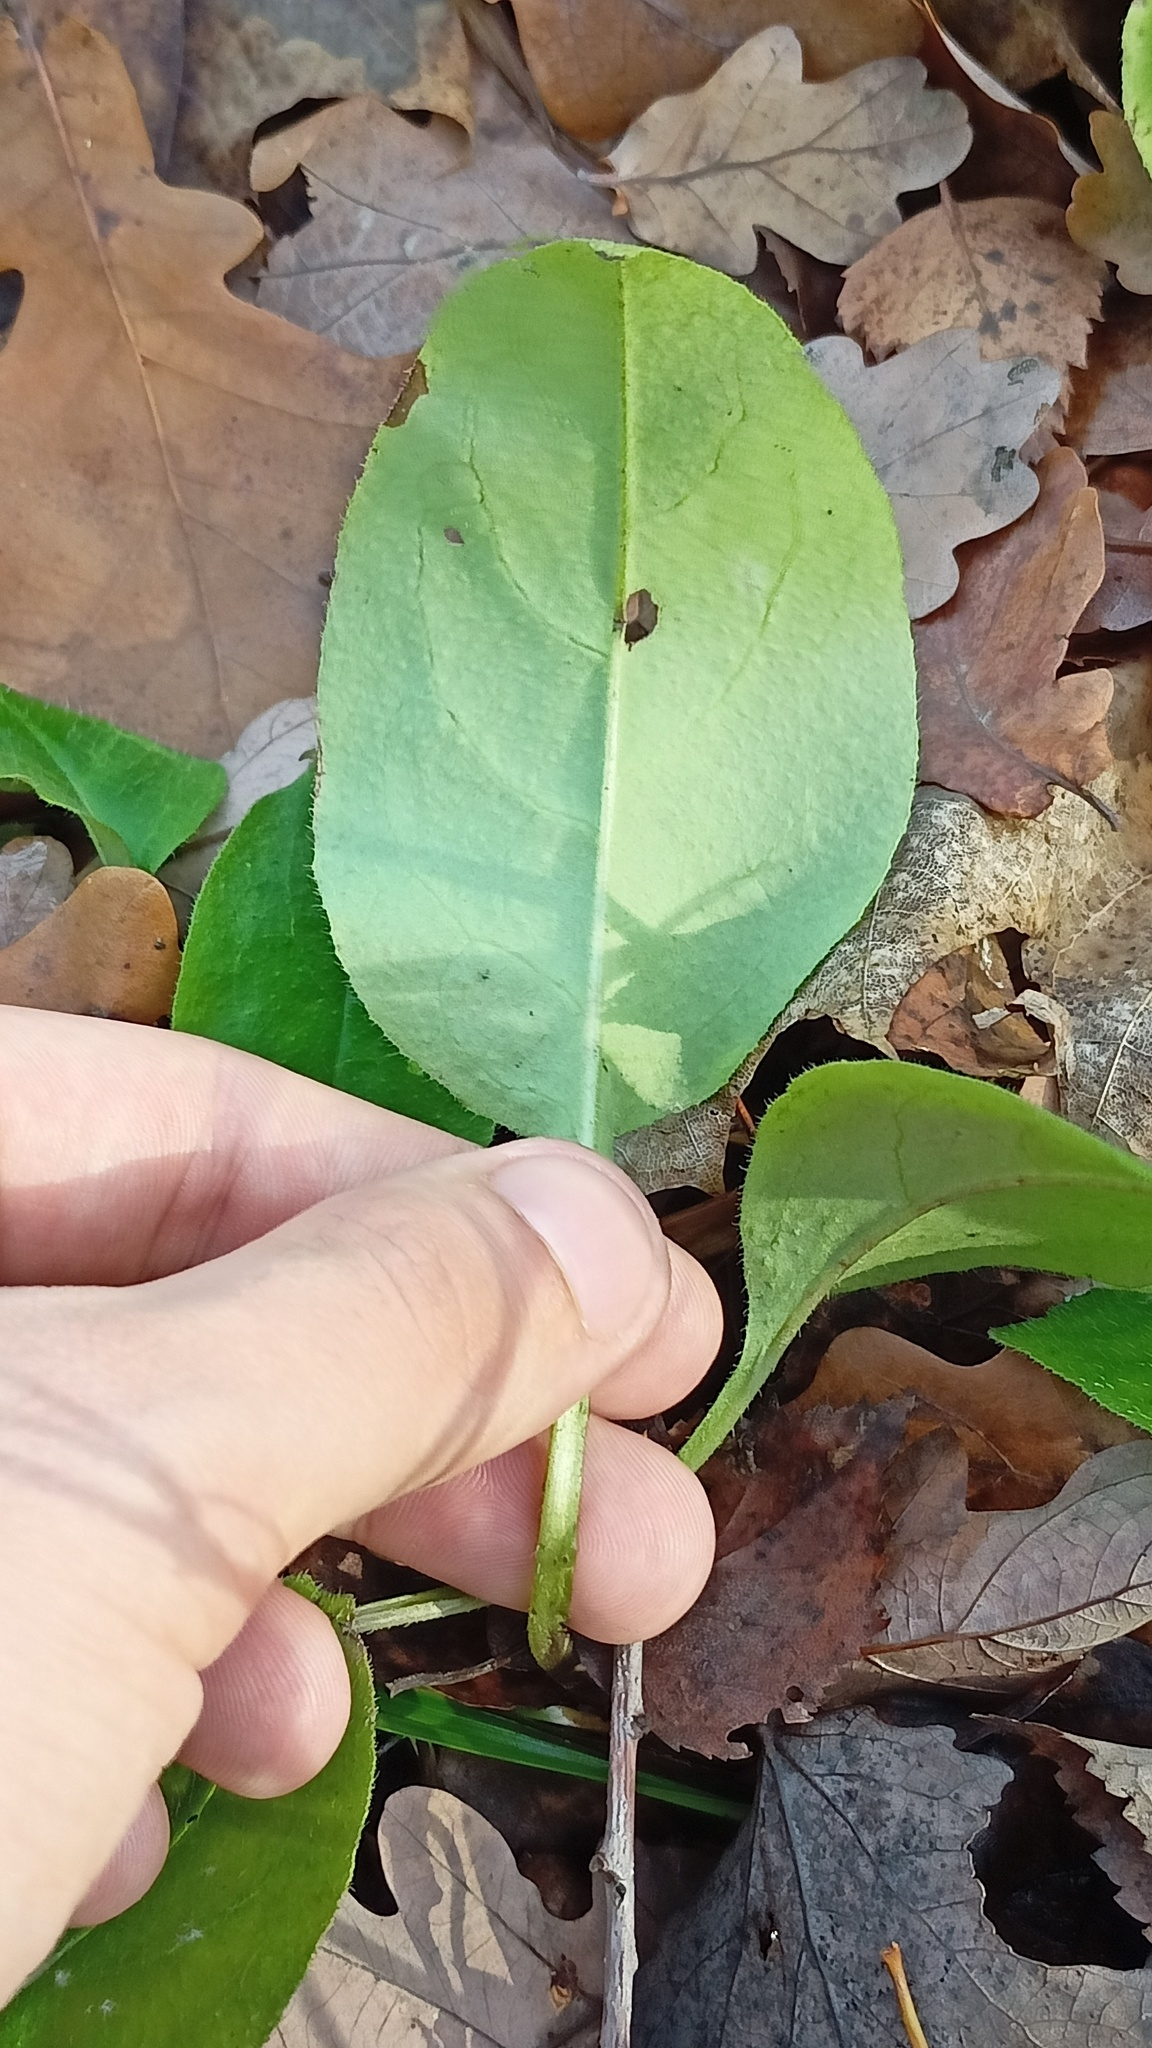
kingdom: Plantae
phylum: Tracheophyta
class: Magnoliopsida
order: Boraginales
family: Boraginaceae
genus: Pulmonaria
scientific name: Pulmonaria obscura
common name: Suffolk lungwort
